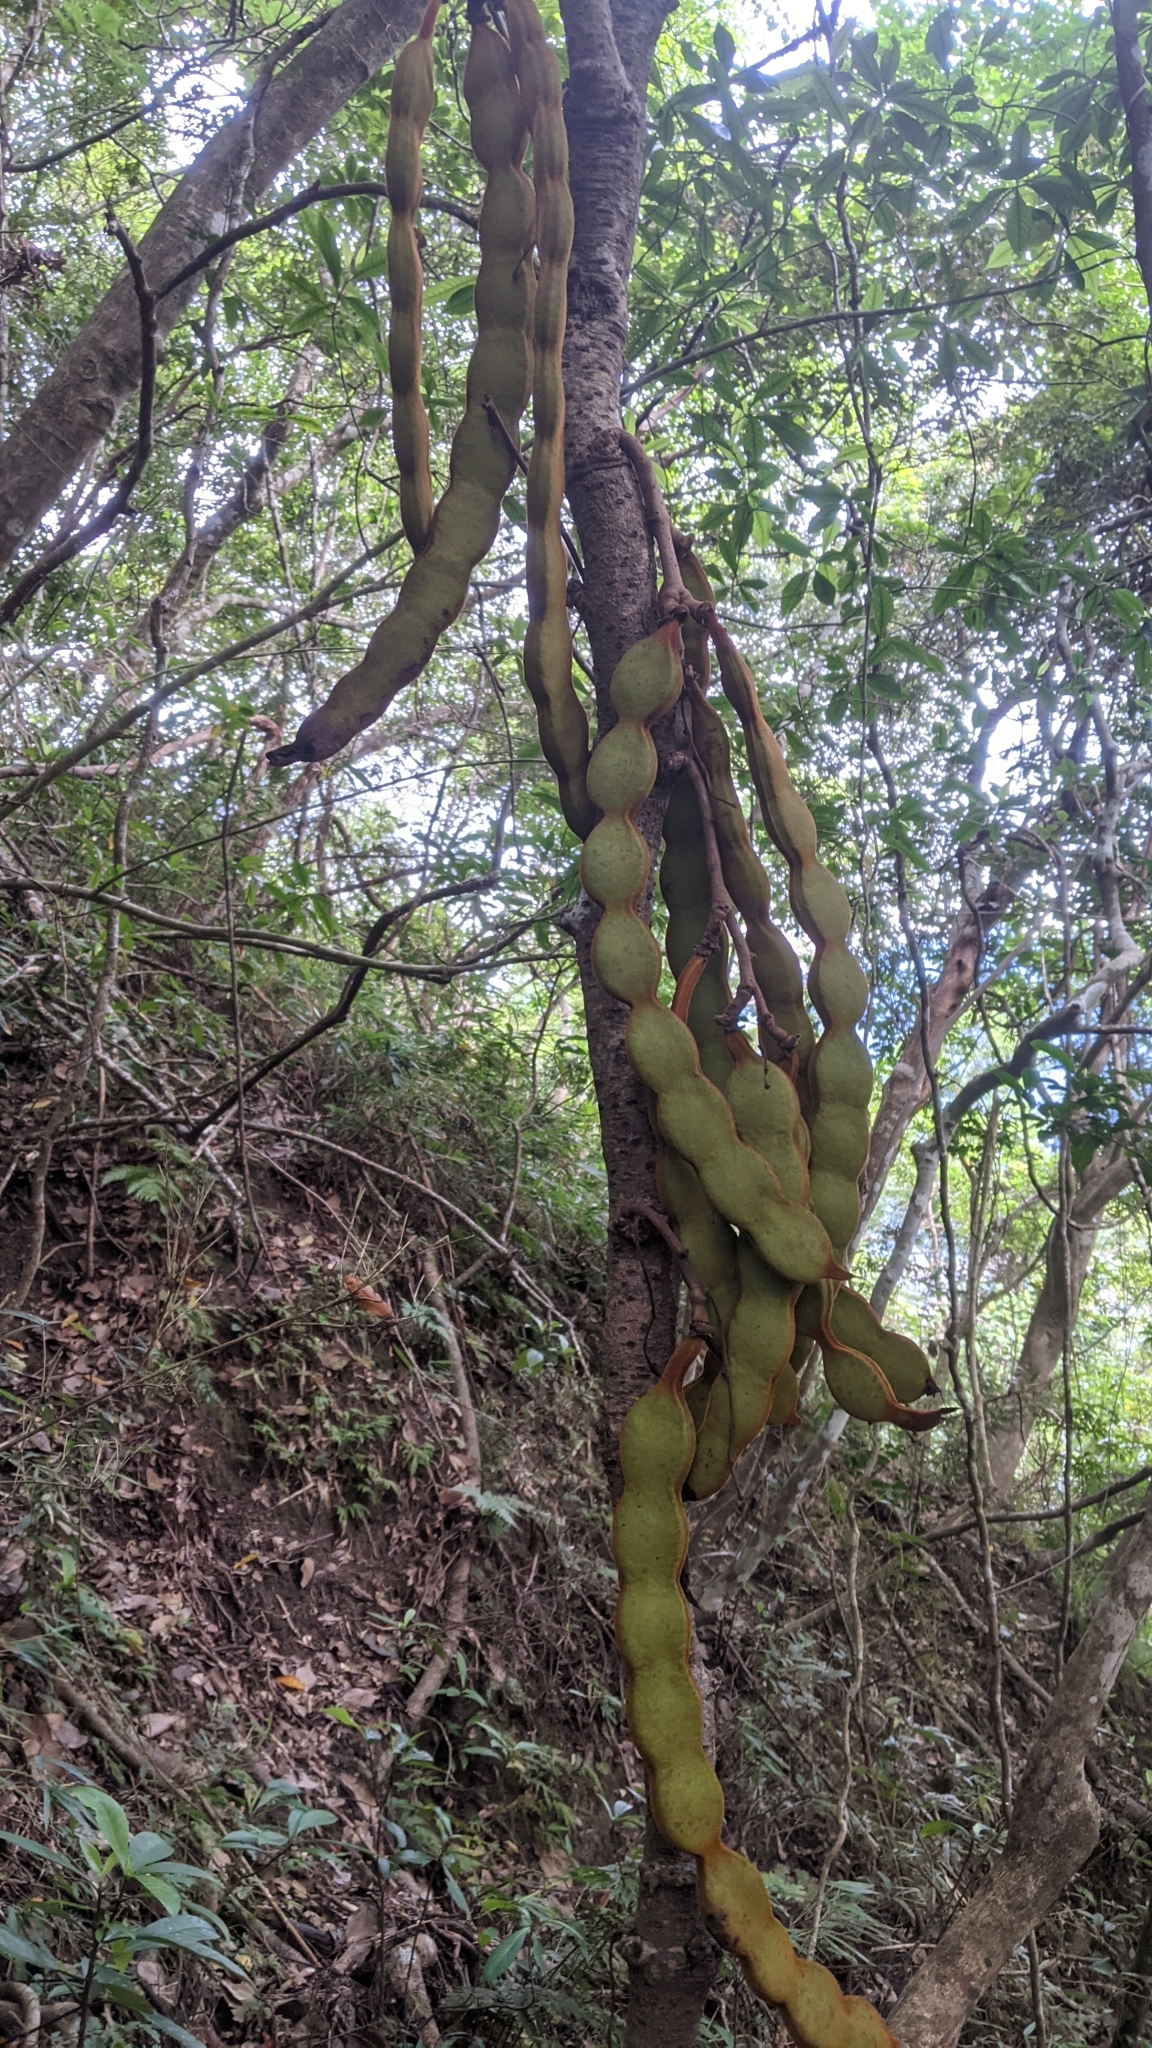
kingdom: Plantae
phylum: Tracheophyta
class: Magnoliopsida
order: Fabales
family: Fabaceae
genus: Mucuna
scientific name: Mucuna macrocarpa
